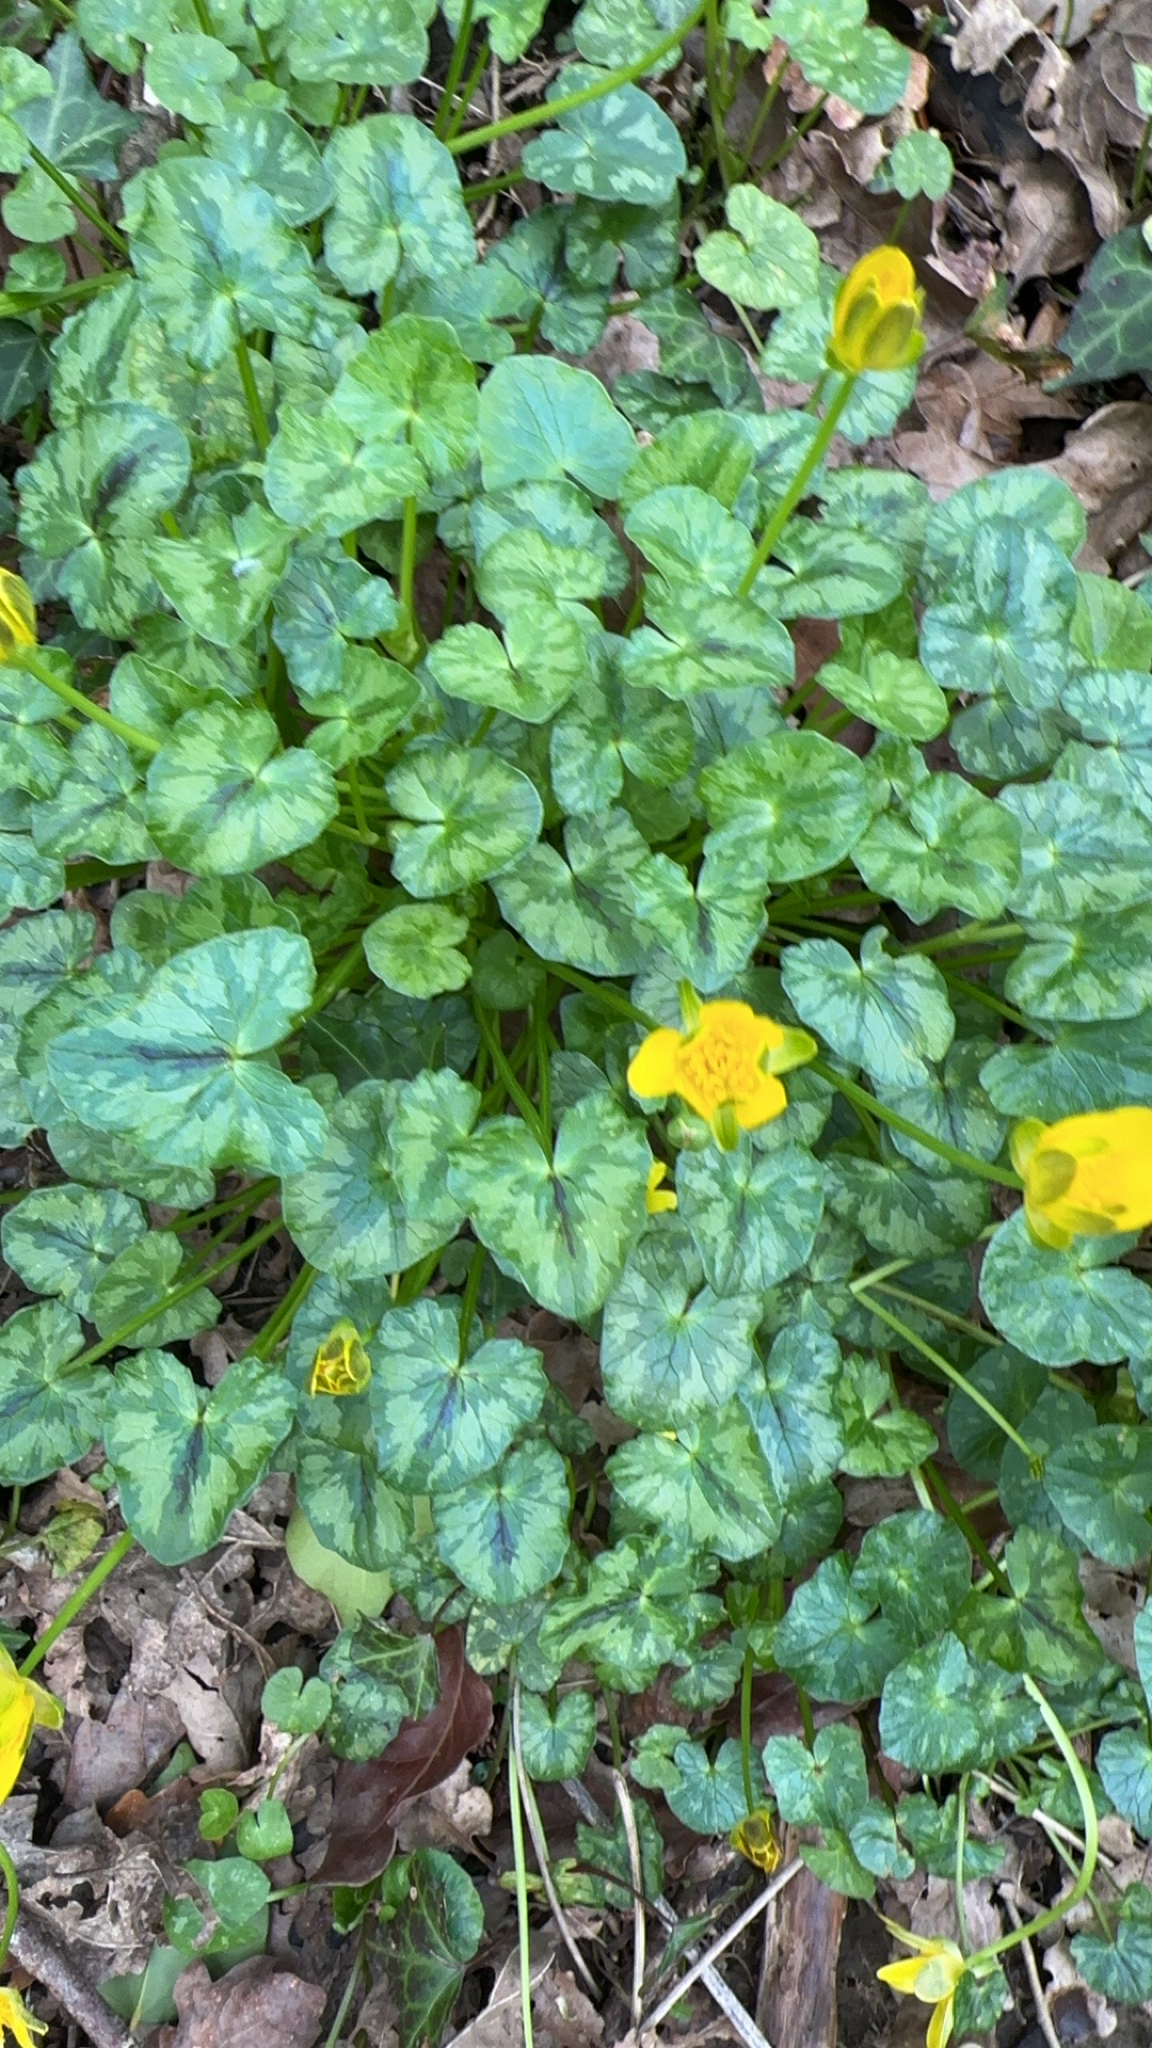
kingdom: Plantae
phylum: Tracheophyta
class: Magnoliopsida
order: Ranunculales
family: Ranunculaceae
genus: Ficaria
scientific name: Ficaria verna
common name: Lesser celandine
